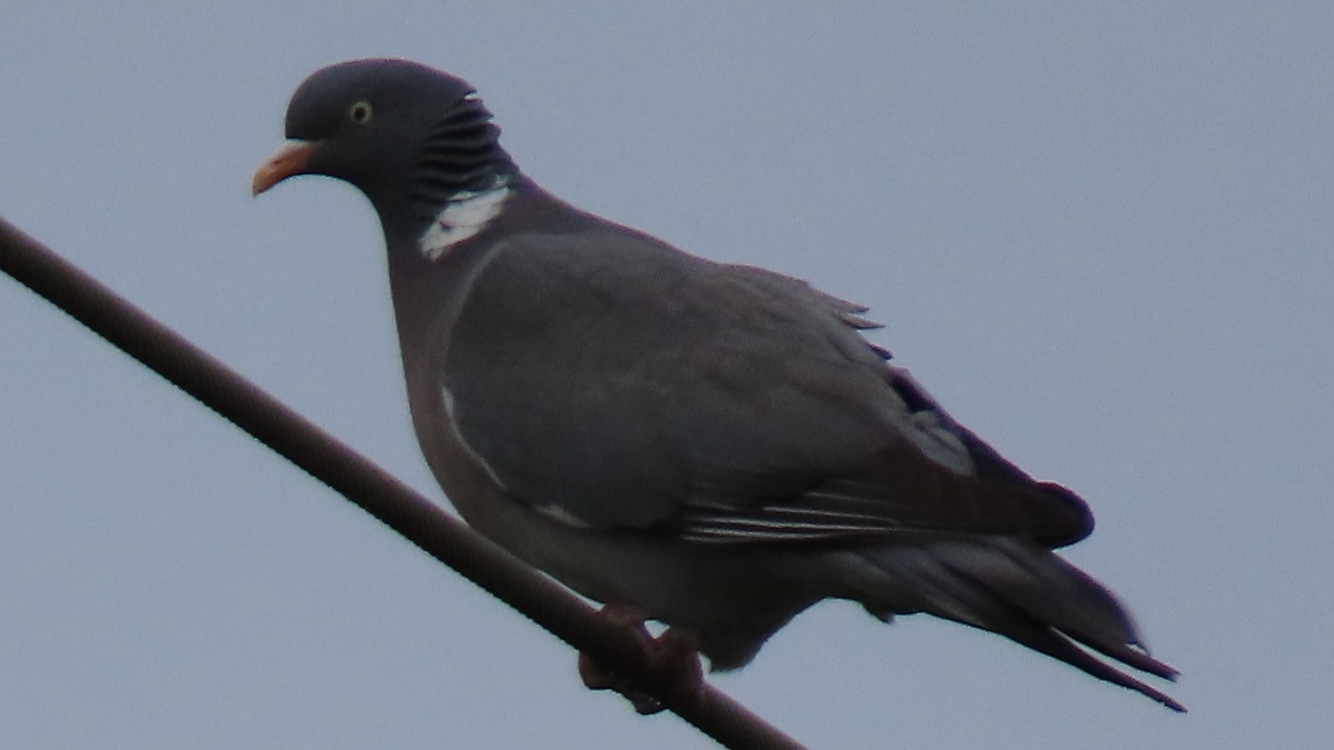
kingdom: Animalia
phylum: Chordata
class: Aves
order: Columbiformes
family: Columbidae
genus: Columba
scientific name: Columba palumbus
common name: Common wood pigeon
